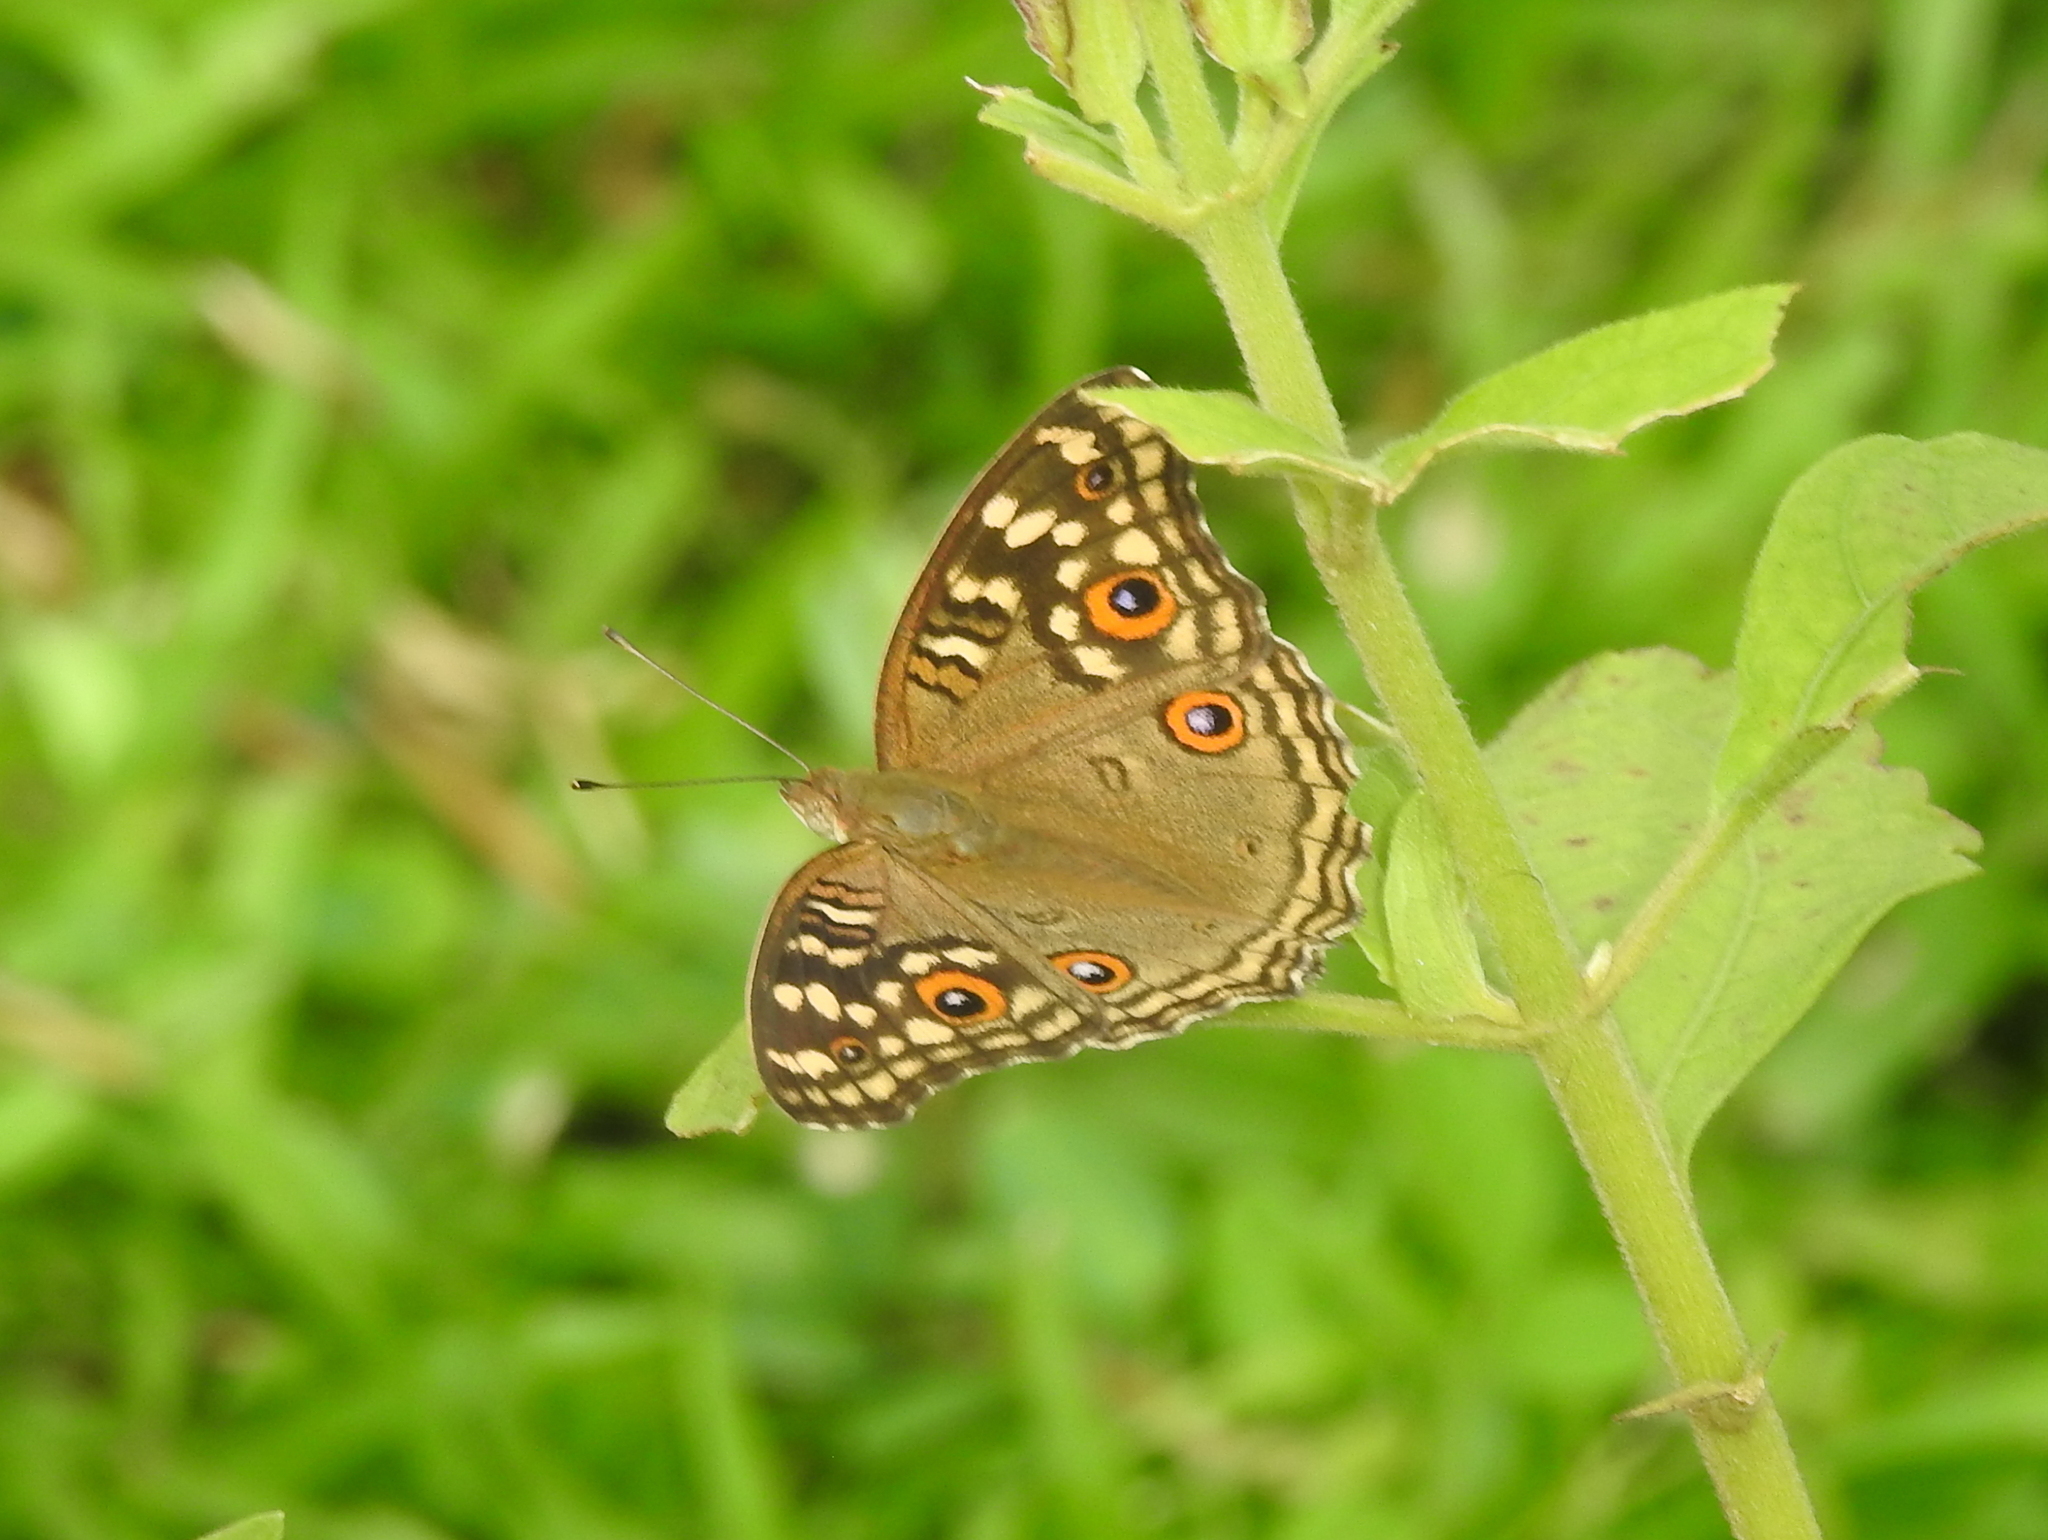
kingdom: Animalia
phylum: Arthropoda
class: Insecta
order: Lepidoptera
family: Nymphalidae
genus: Junonia
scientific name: Junonia lemonias
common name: Lemon pansy
